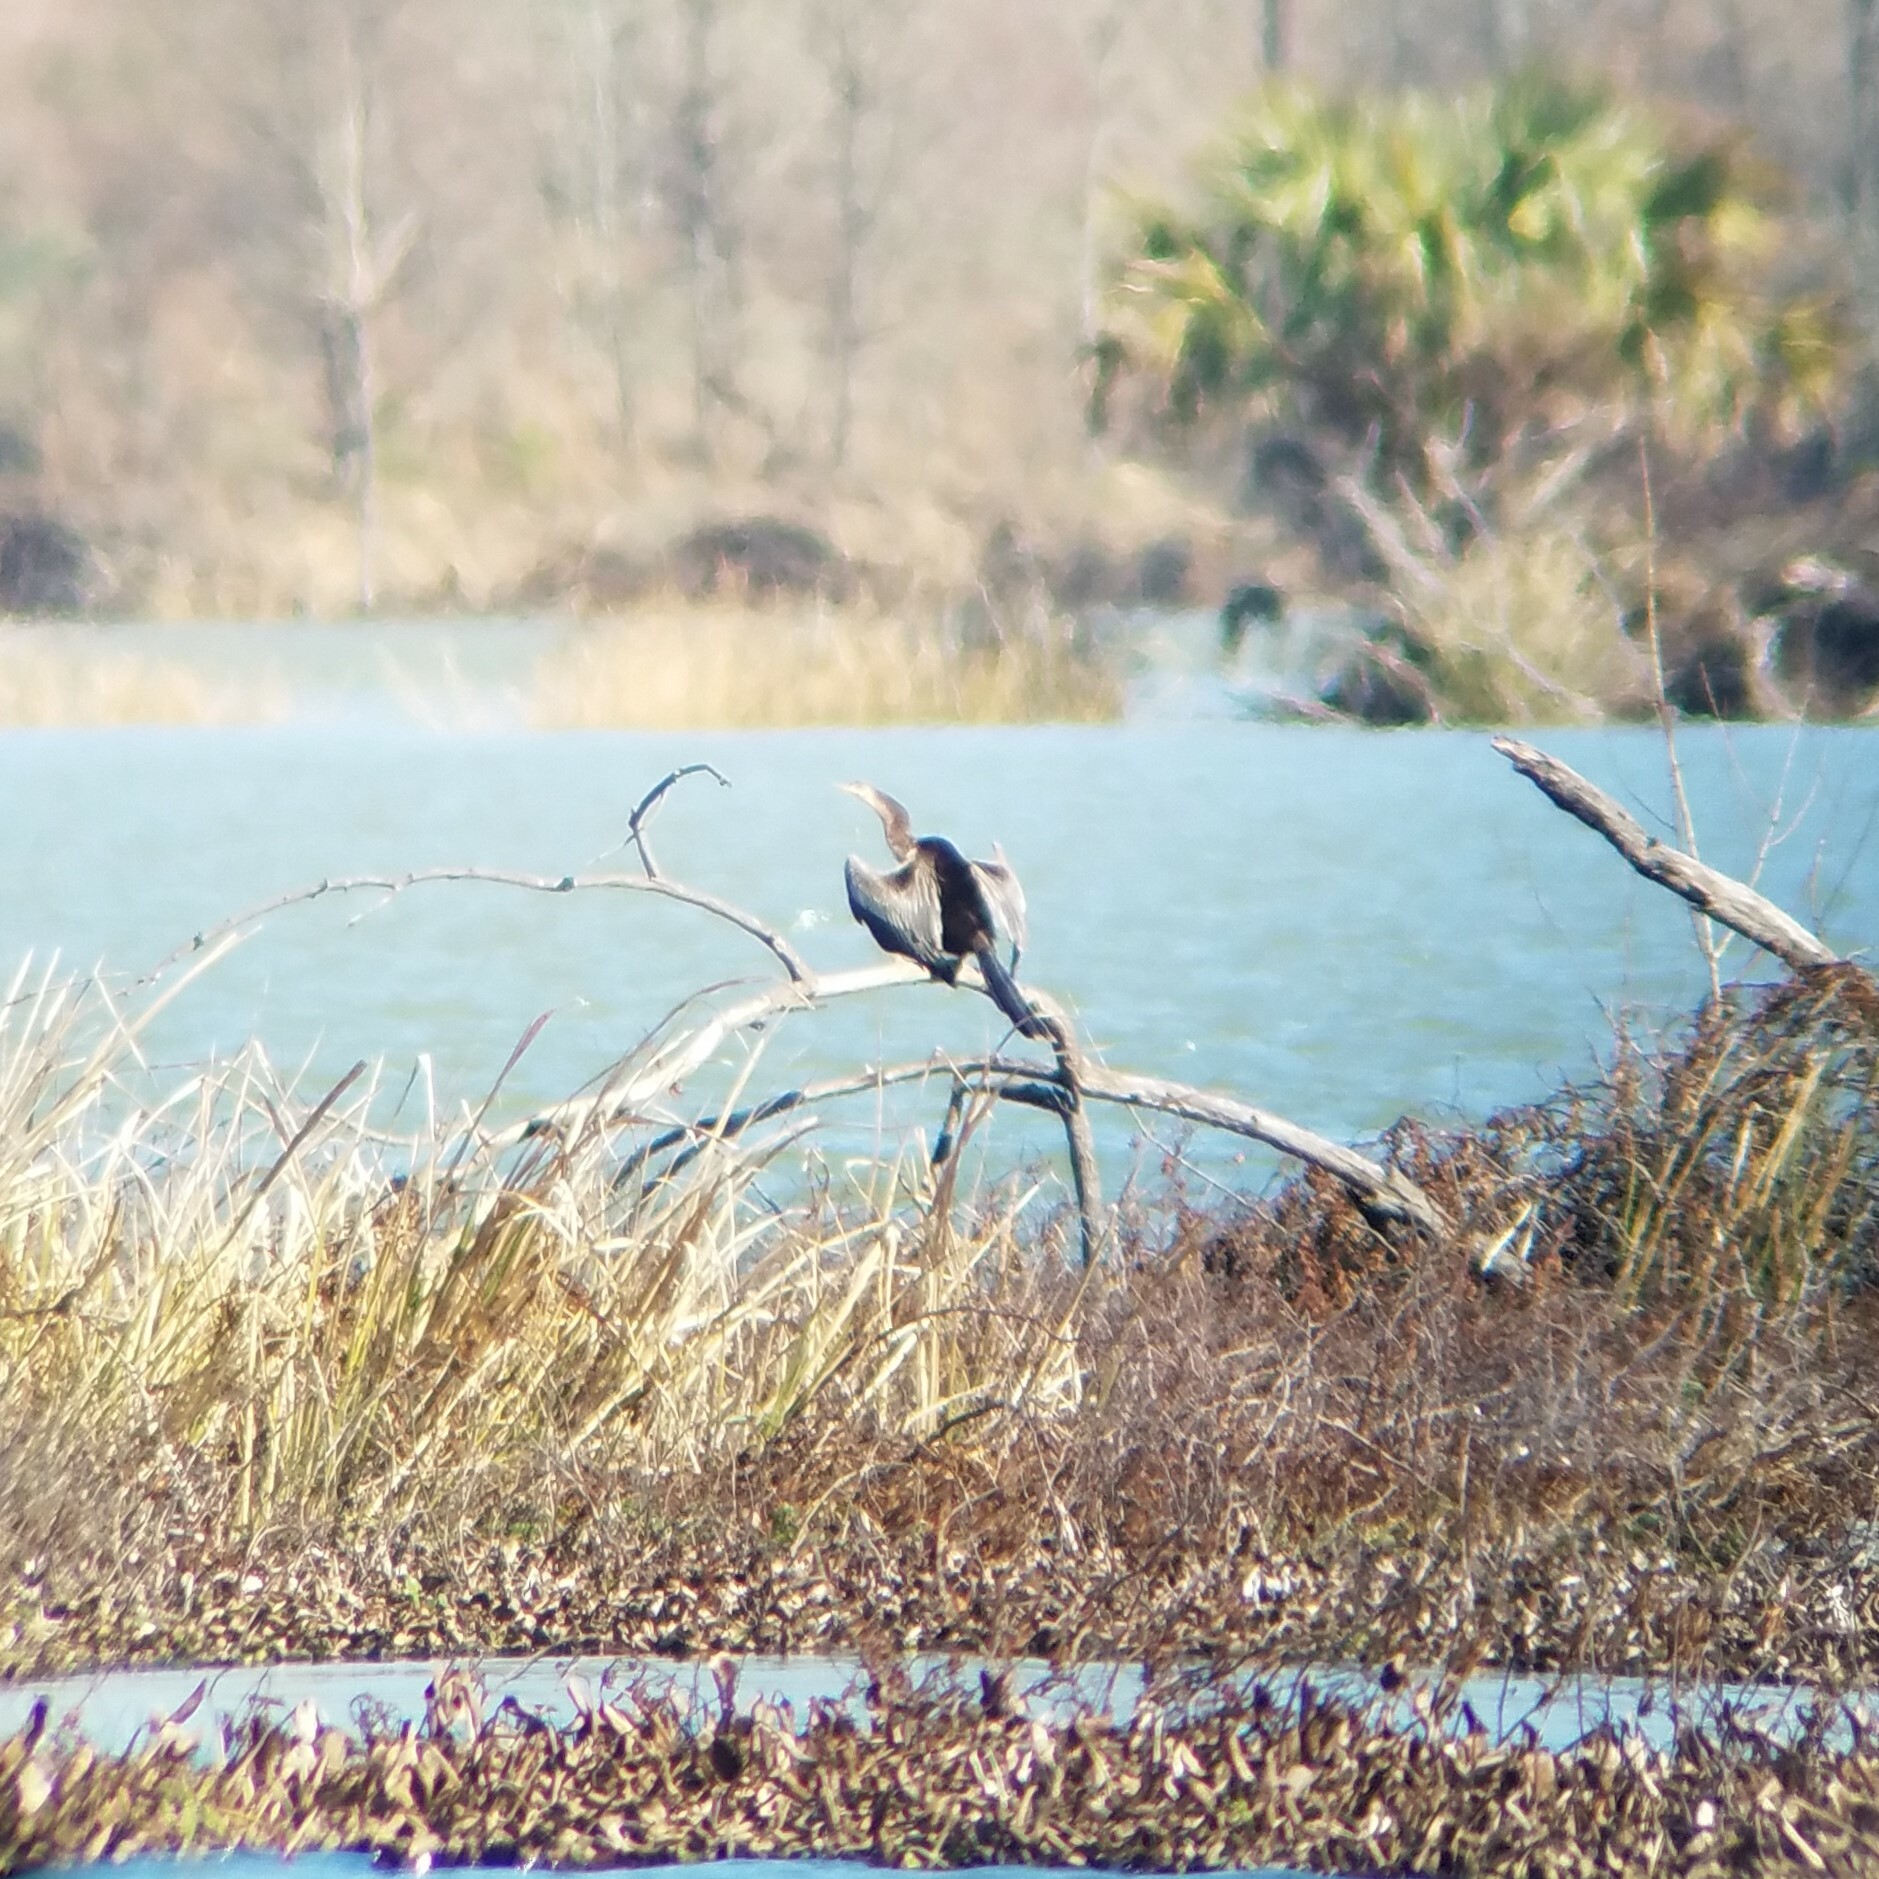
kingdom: Animalia
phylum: Chordata
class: Aves
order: Suliformes
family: Anhingidae
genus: Anhinga
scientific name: Anhinga anhinga
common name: Anhinga
